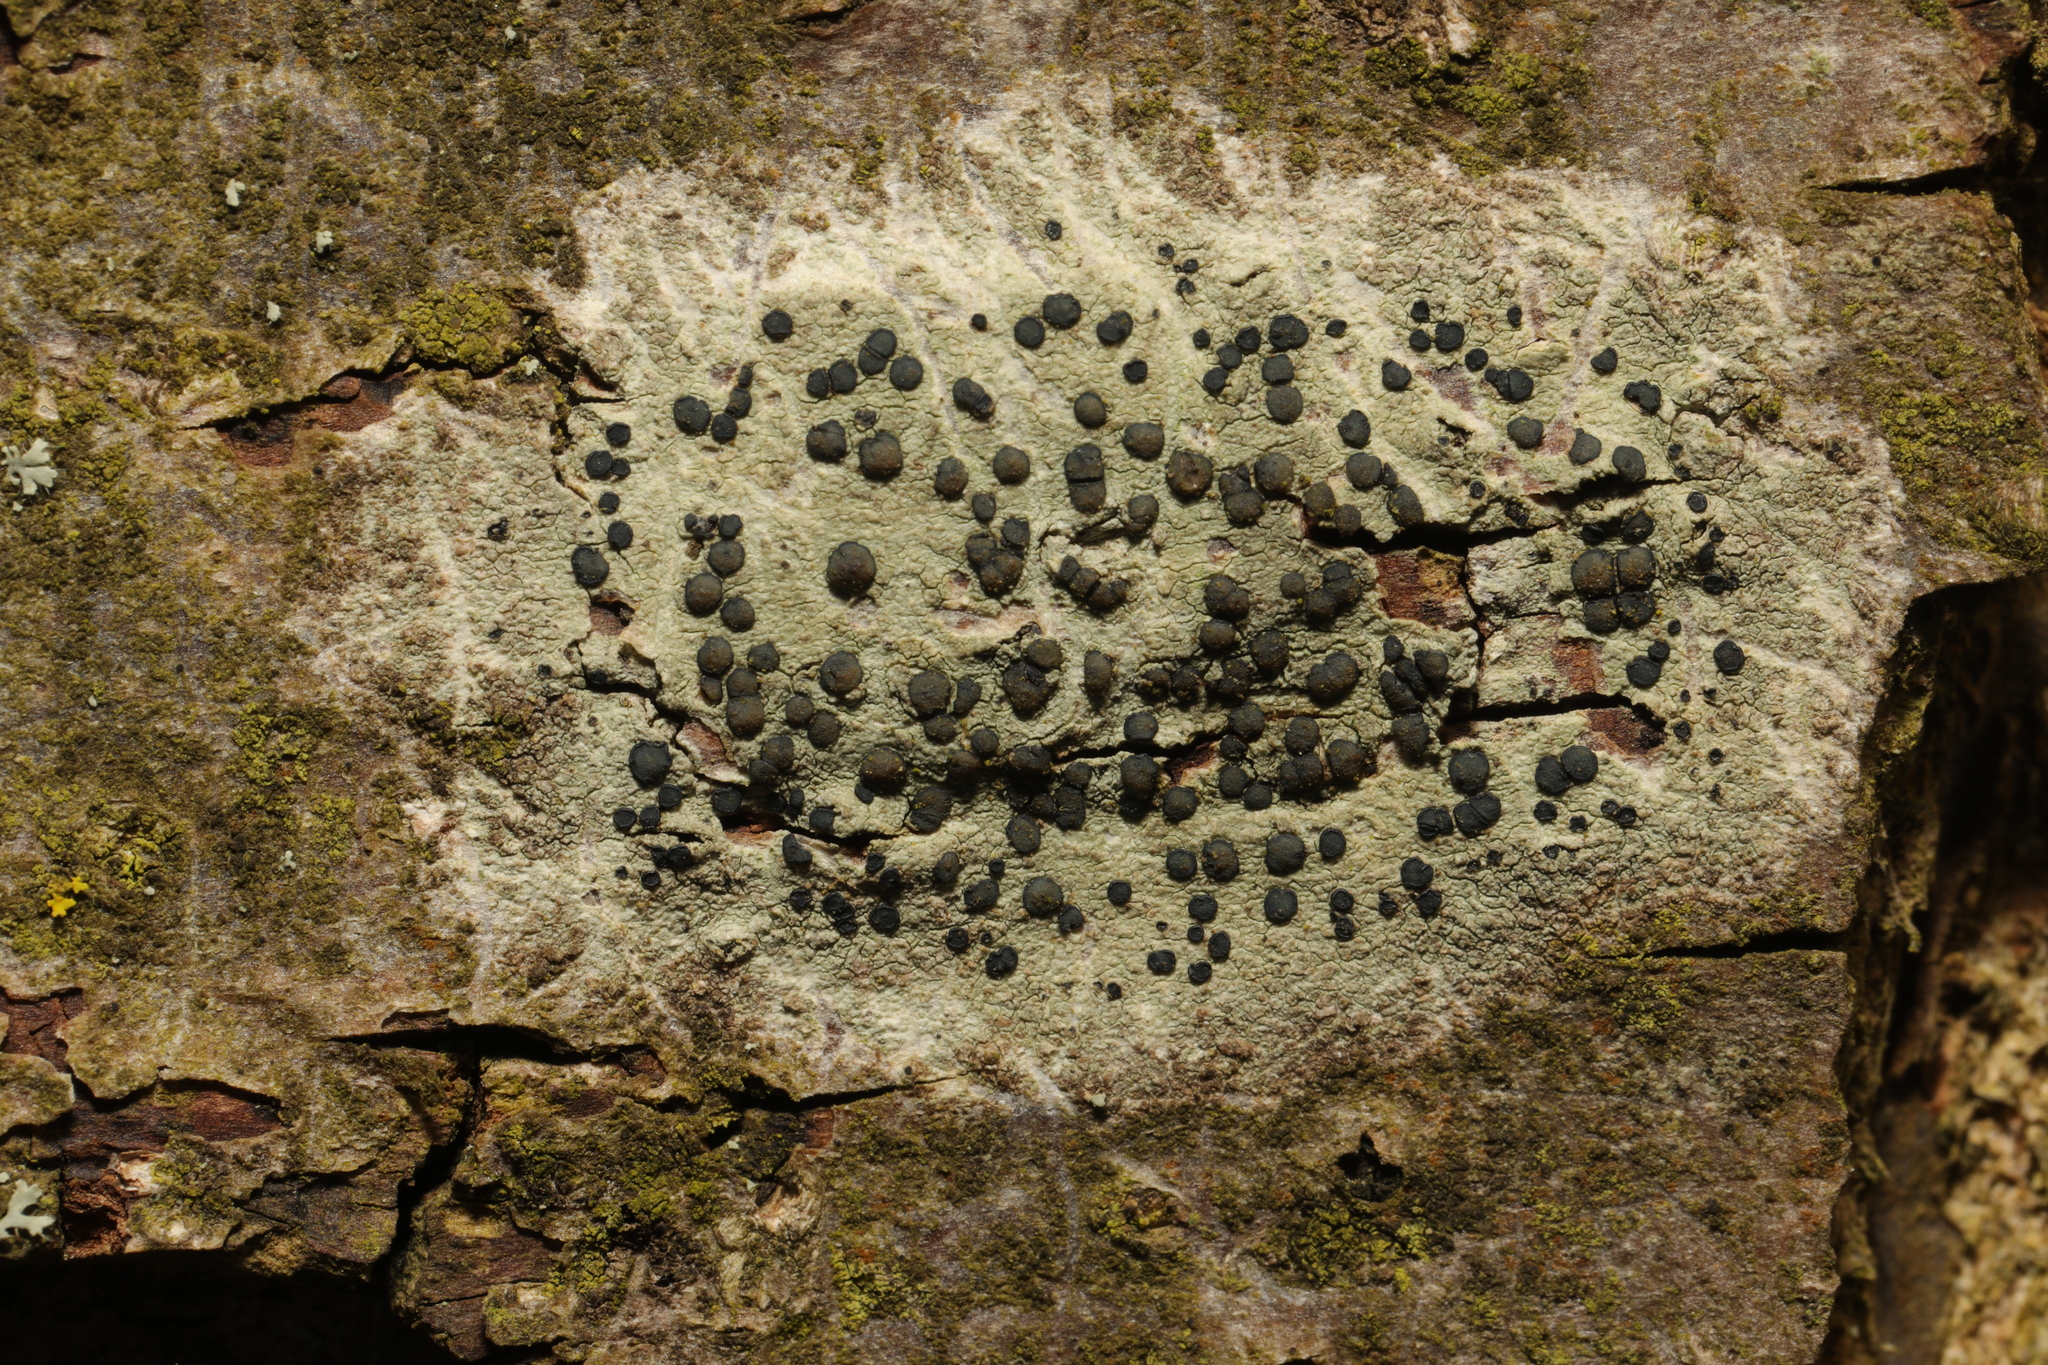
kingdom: Fungi
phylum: Ascomycota
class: Lecanoromycetes
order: Lecanorales
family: Lecanoraceae
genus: Lecidella
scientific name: Lecidella elaeochroma
